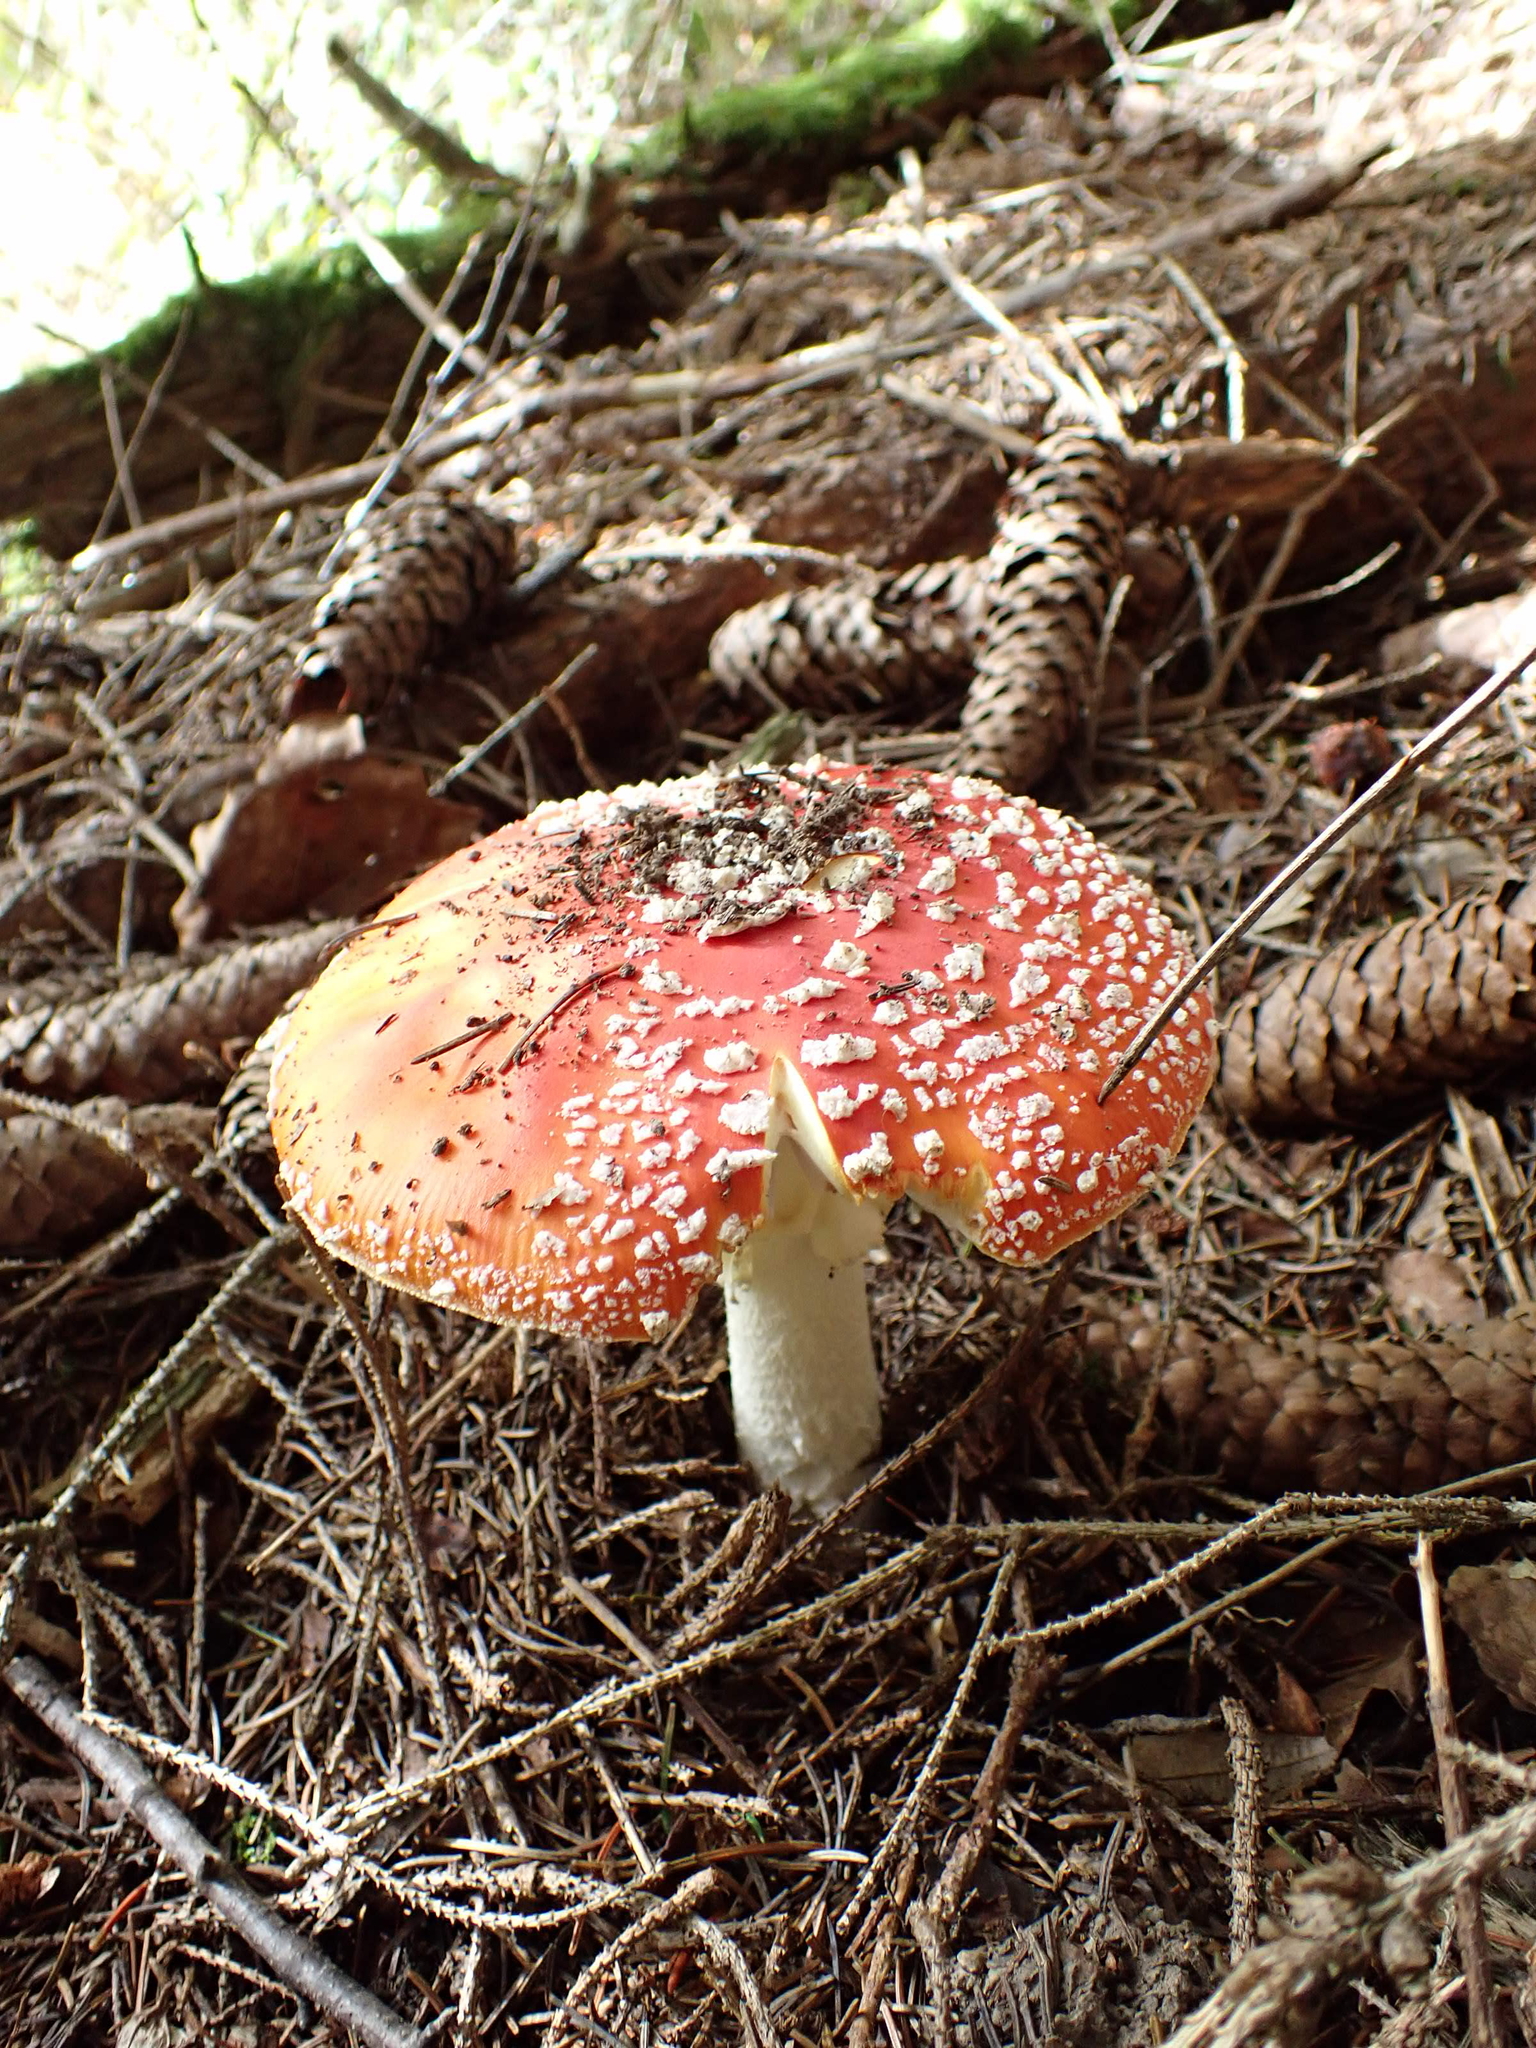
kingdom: Fungi
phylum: Basidiomycota
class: Agaricomycetes
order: Agaricales
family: Amanitaceae
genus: Amanita
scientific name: Amanita muscaria
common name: Fly agaric
